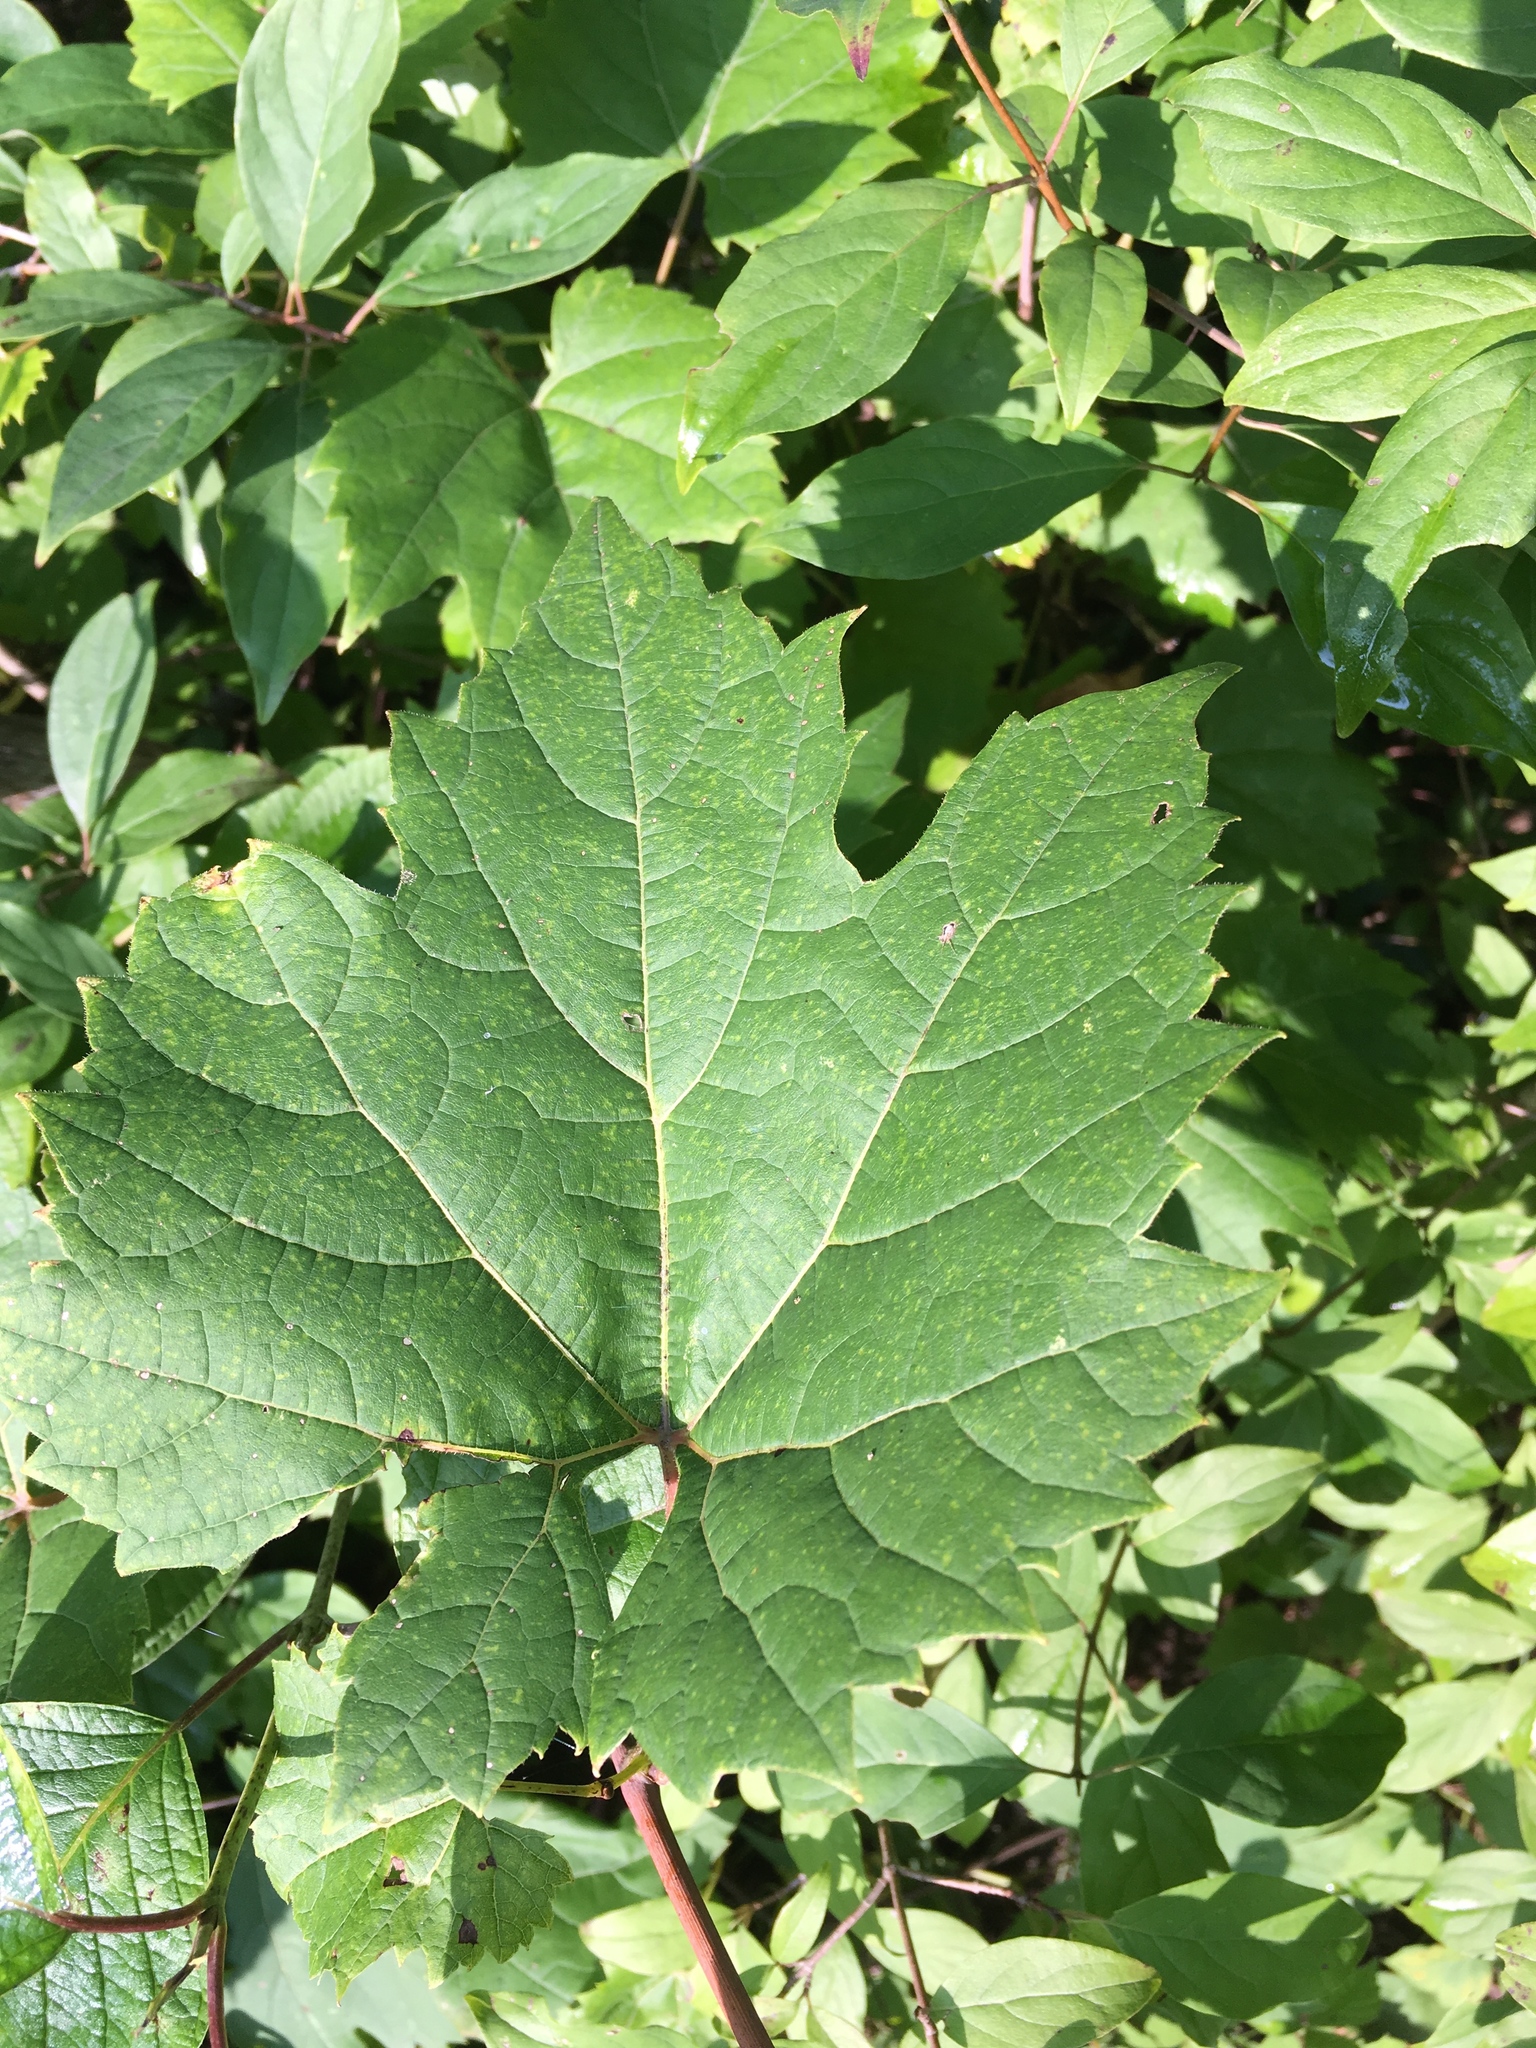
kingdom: Plantae
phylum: Tracheophyta
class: Magnoliopsida
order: Vitales
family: Vitaceae
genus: Vitis
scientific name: Vitis riparia
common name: Frost grape
